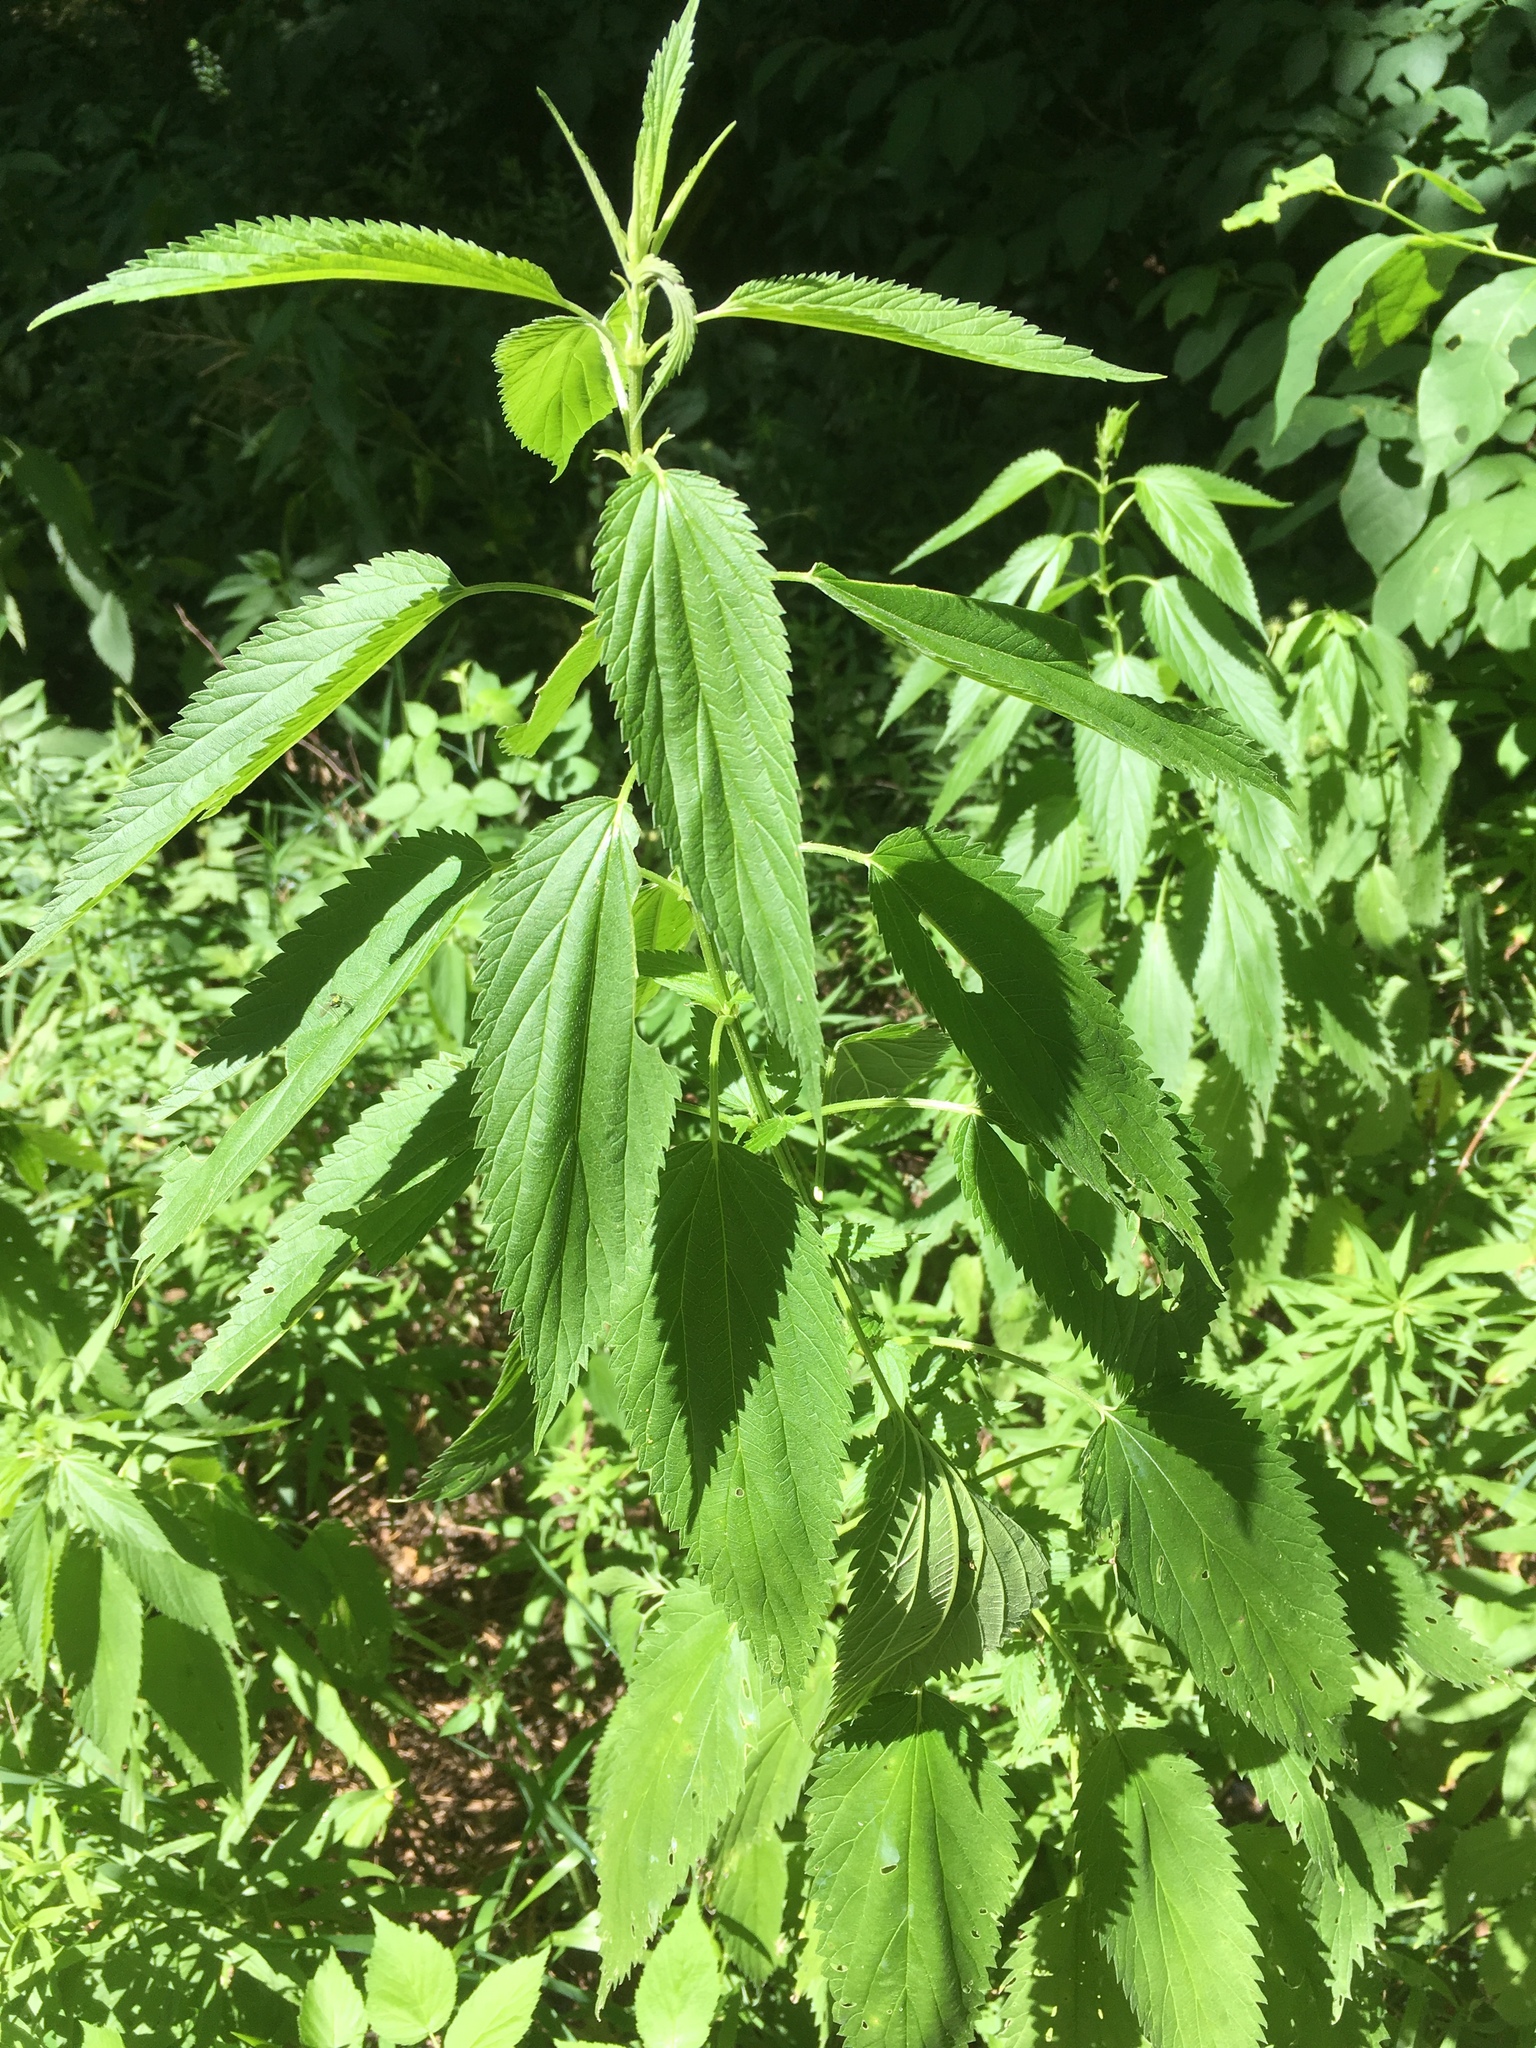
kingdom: Plantae
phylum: Tracheophyta
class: Magnoliopsida
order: Rosales
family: Urticaceae
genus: Urtica
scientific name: Urtica gracilis
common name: Slender stinging nettle
